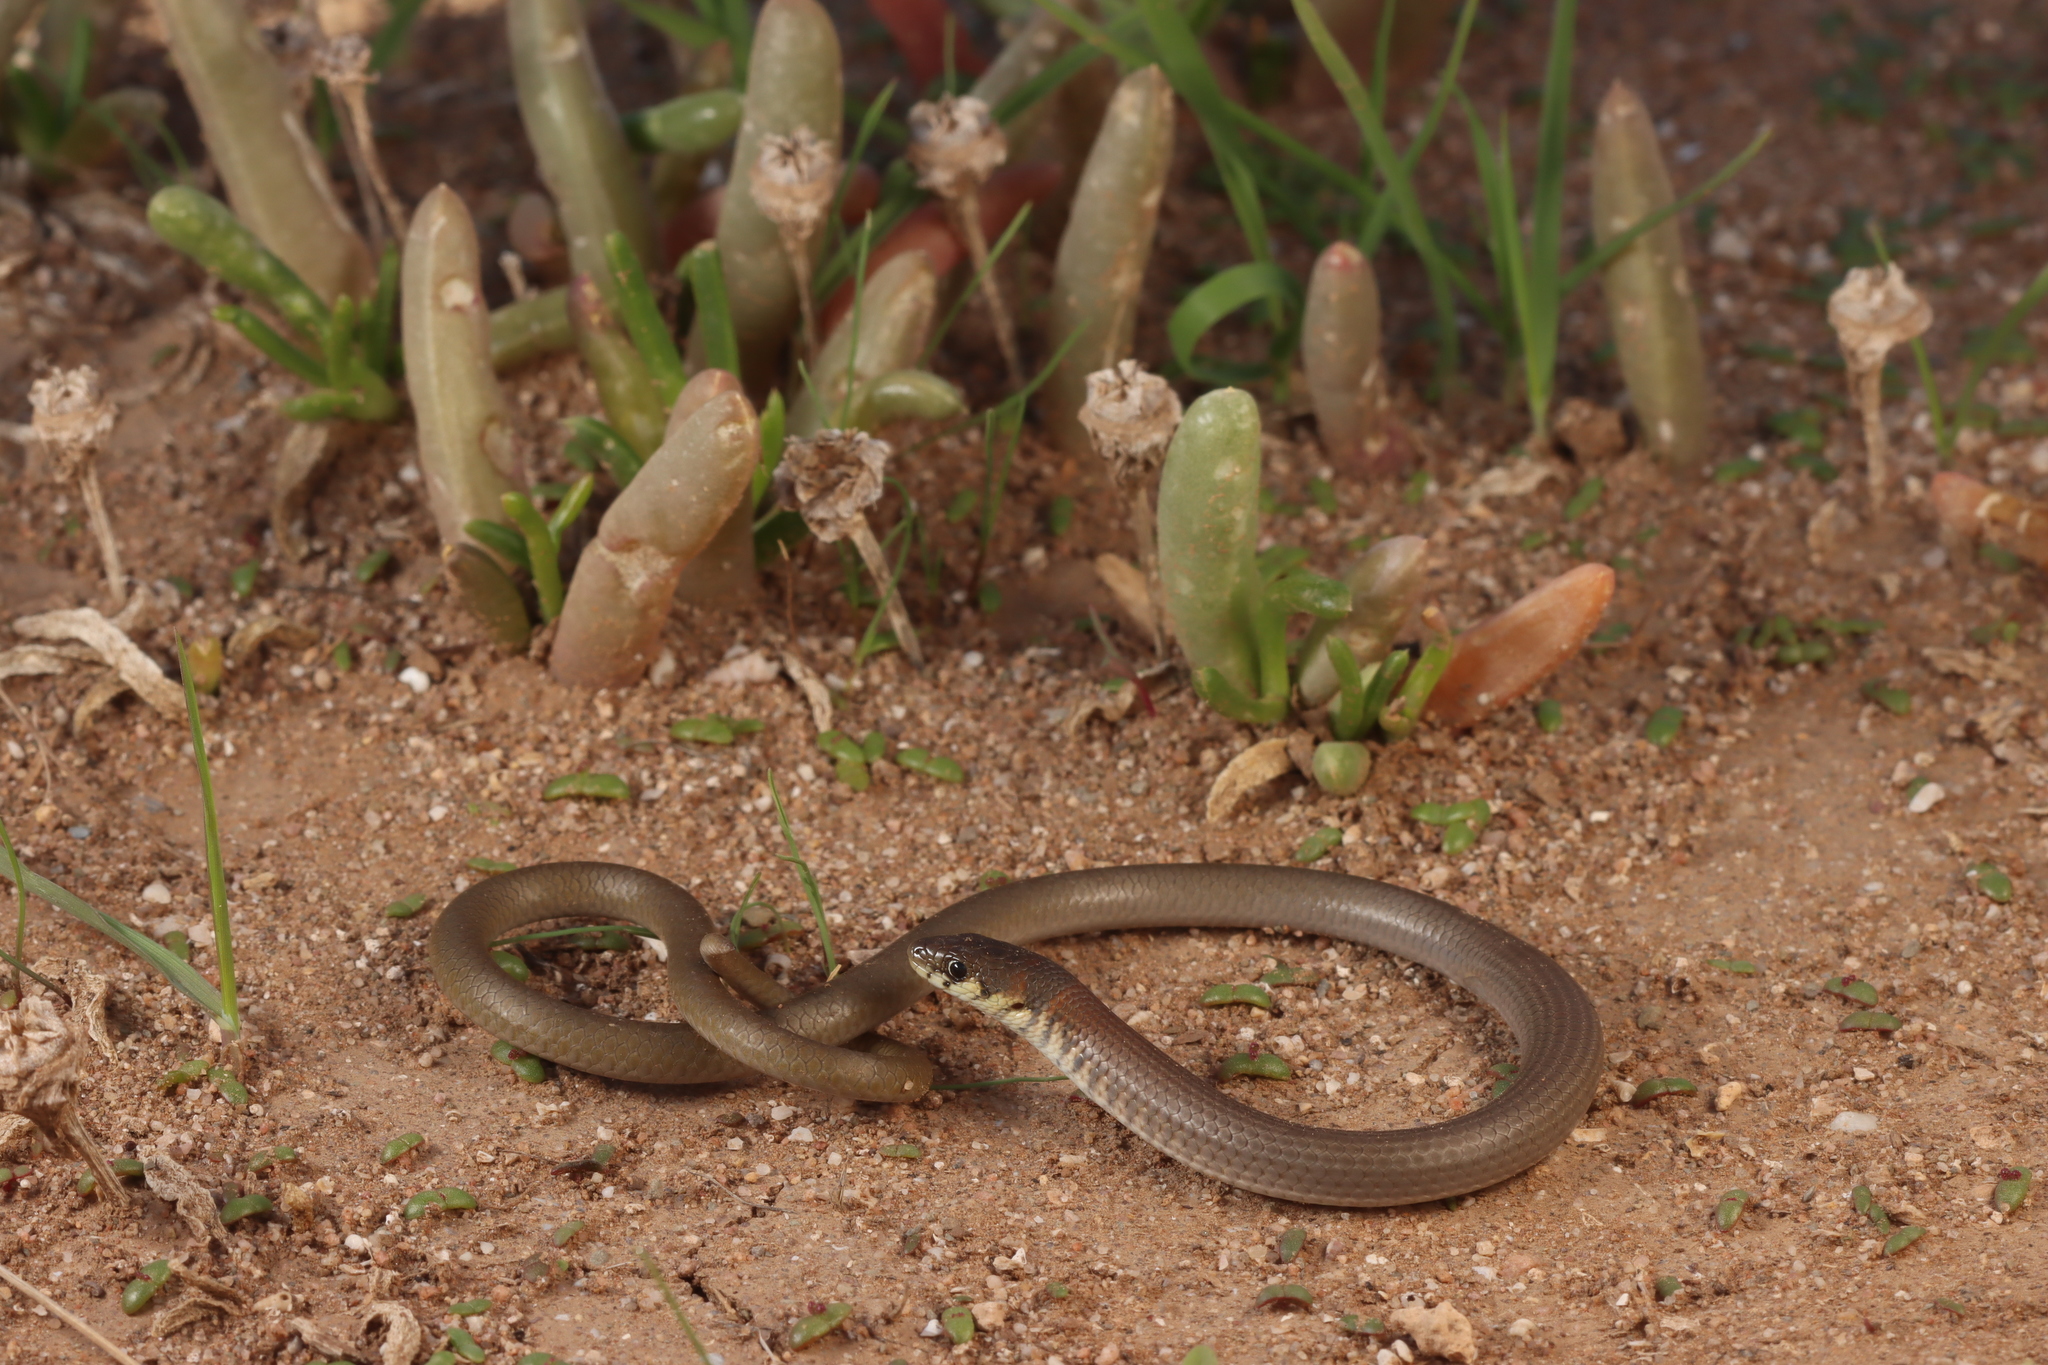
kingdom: Animalia
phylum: Chordata
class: Squamata
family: Pygopodidae
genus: Delma
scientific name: Delma molleri
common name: Gulfs delma
